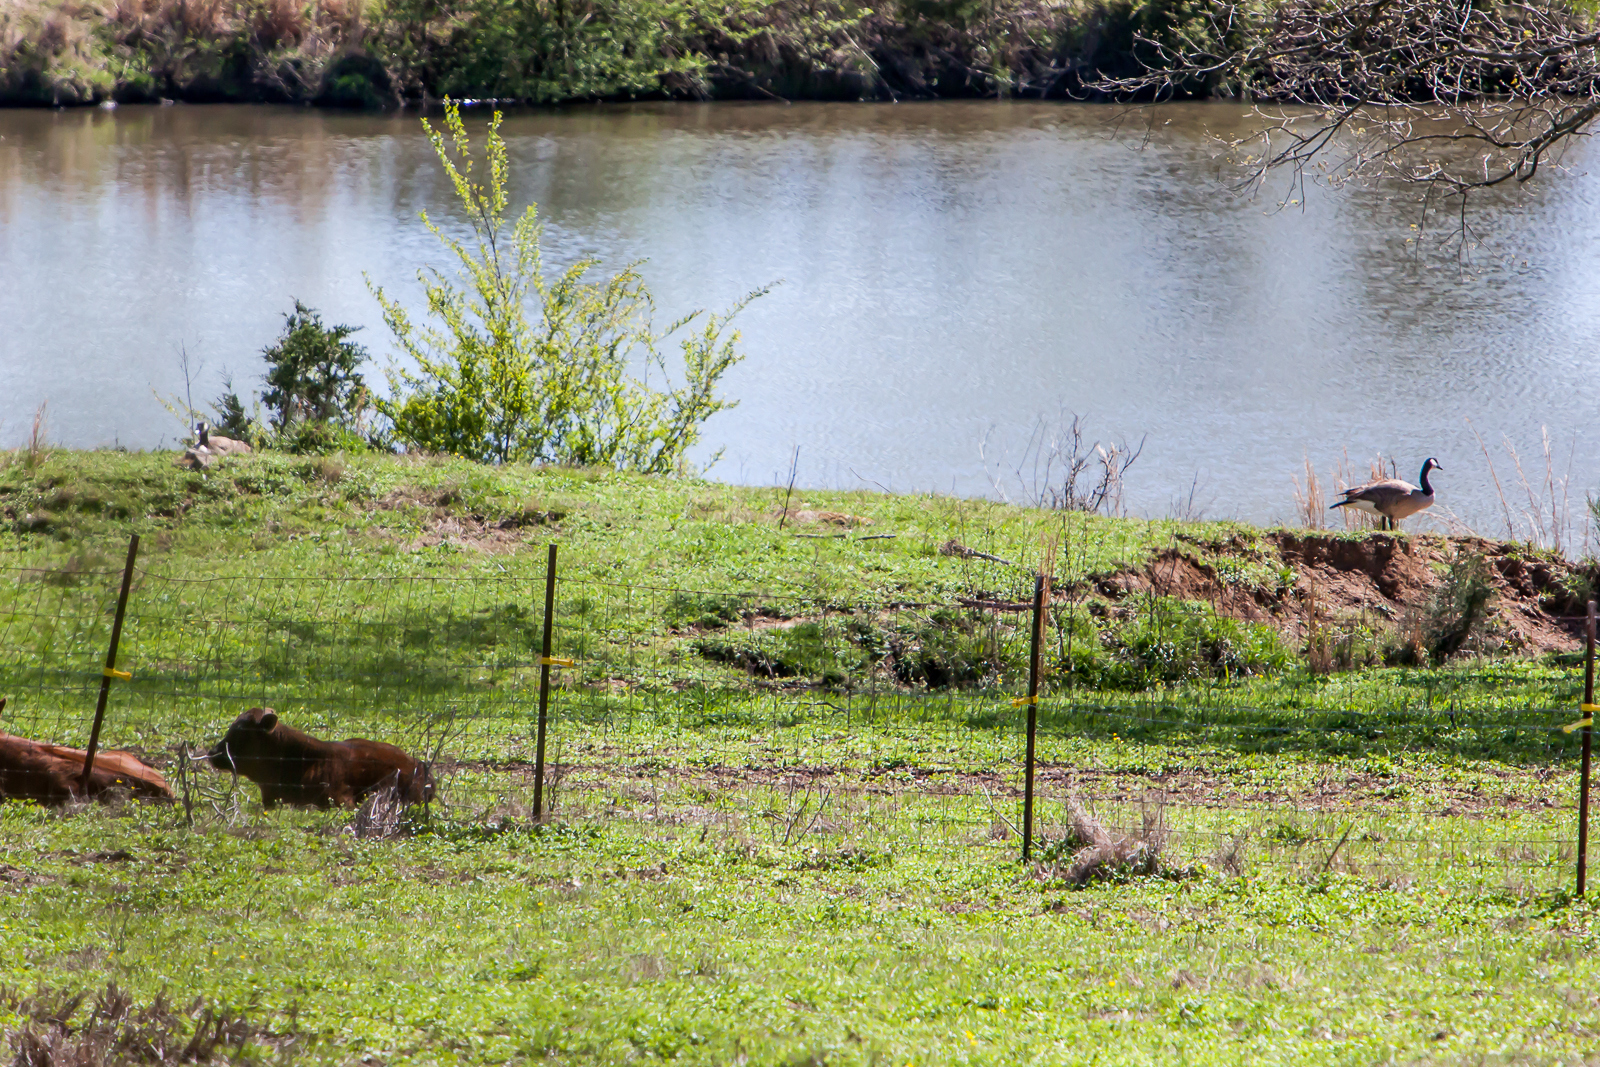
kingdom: Animalia
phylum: Chordata
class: Aves
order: Anseriformes
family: Anatidae
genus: Branta
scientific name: Branta canadensis
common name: Canada goose
